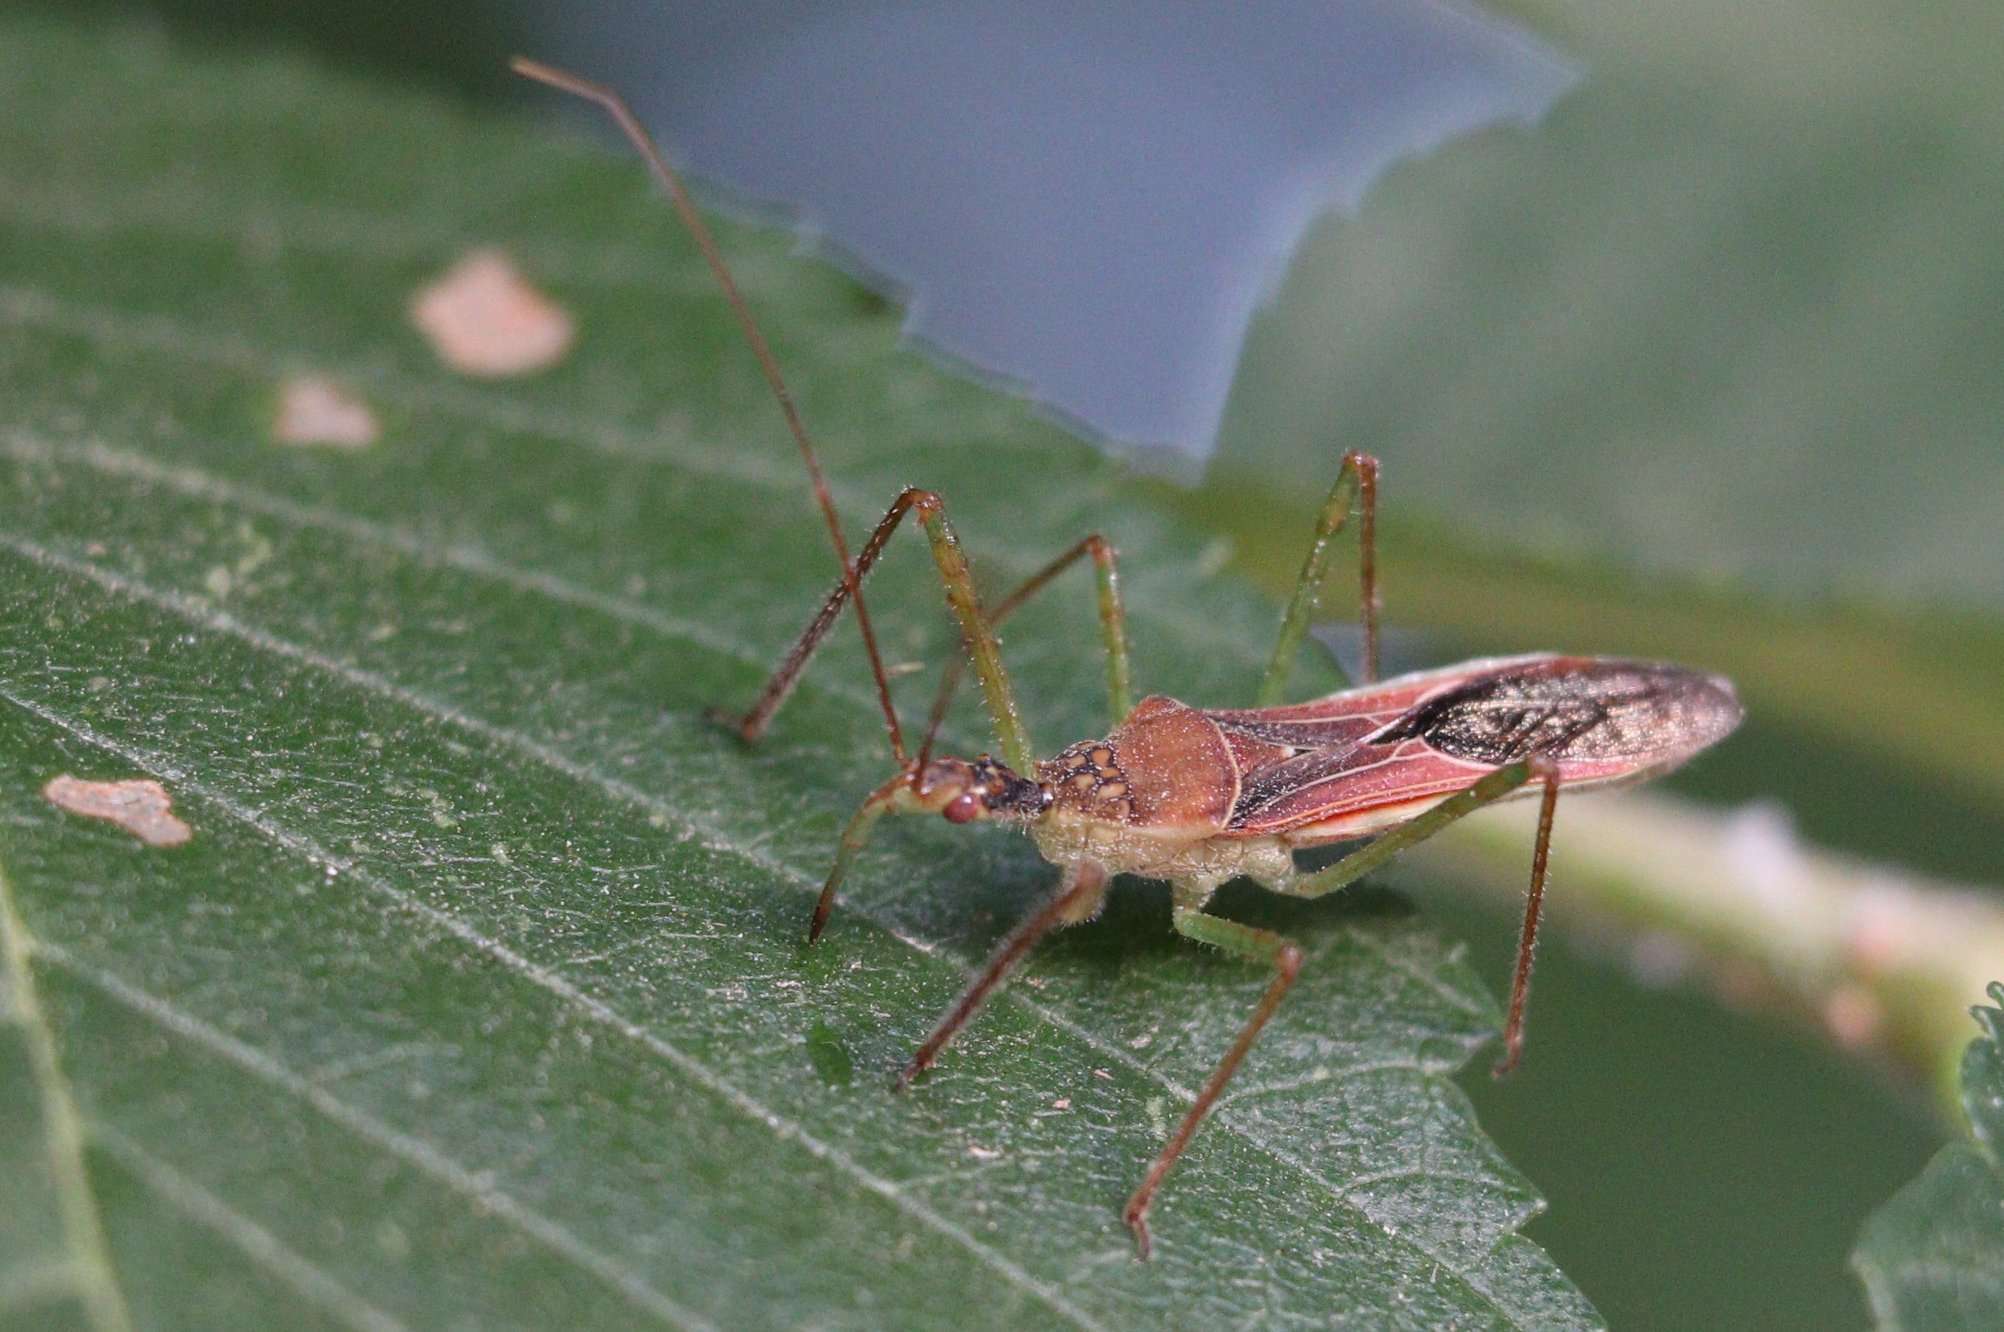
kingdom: Animalia
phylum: Arthropoda
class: Insecta
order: Hemiptera
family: Reduviidae
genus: Zelus
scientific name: Zelus renardii
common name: Assassin bug
